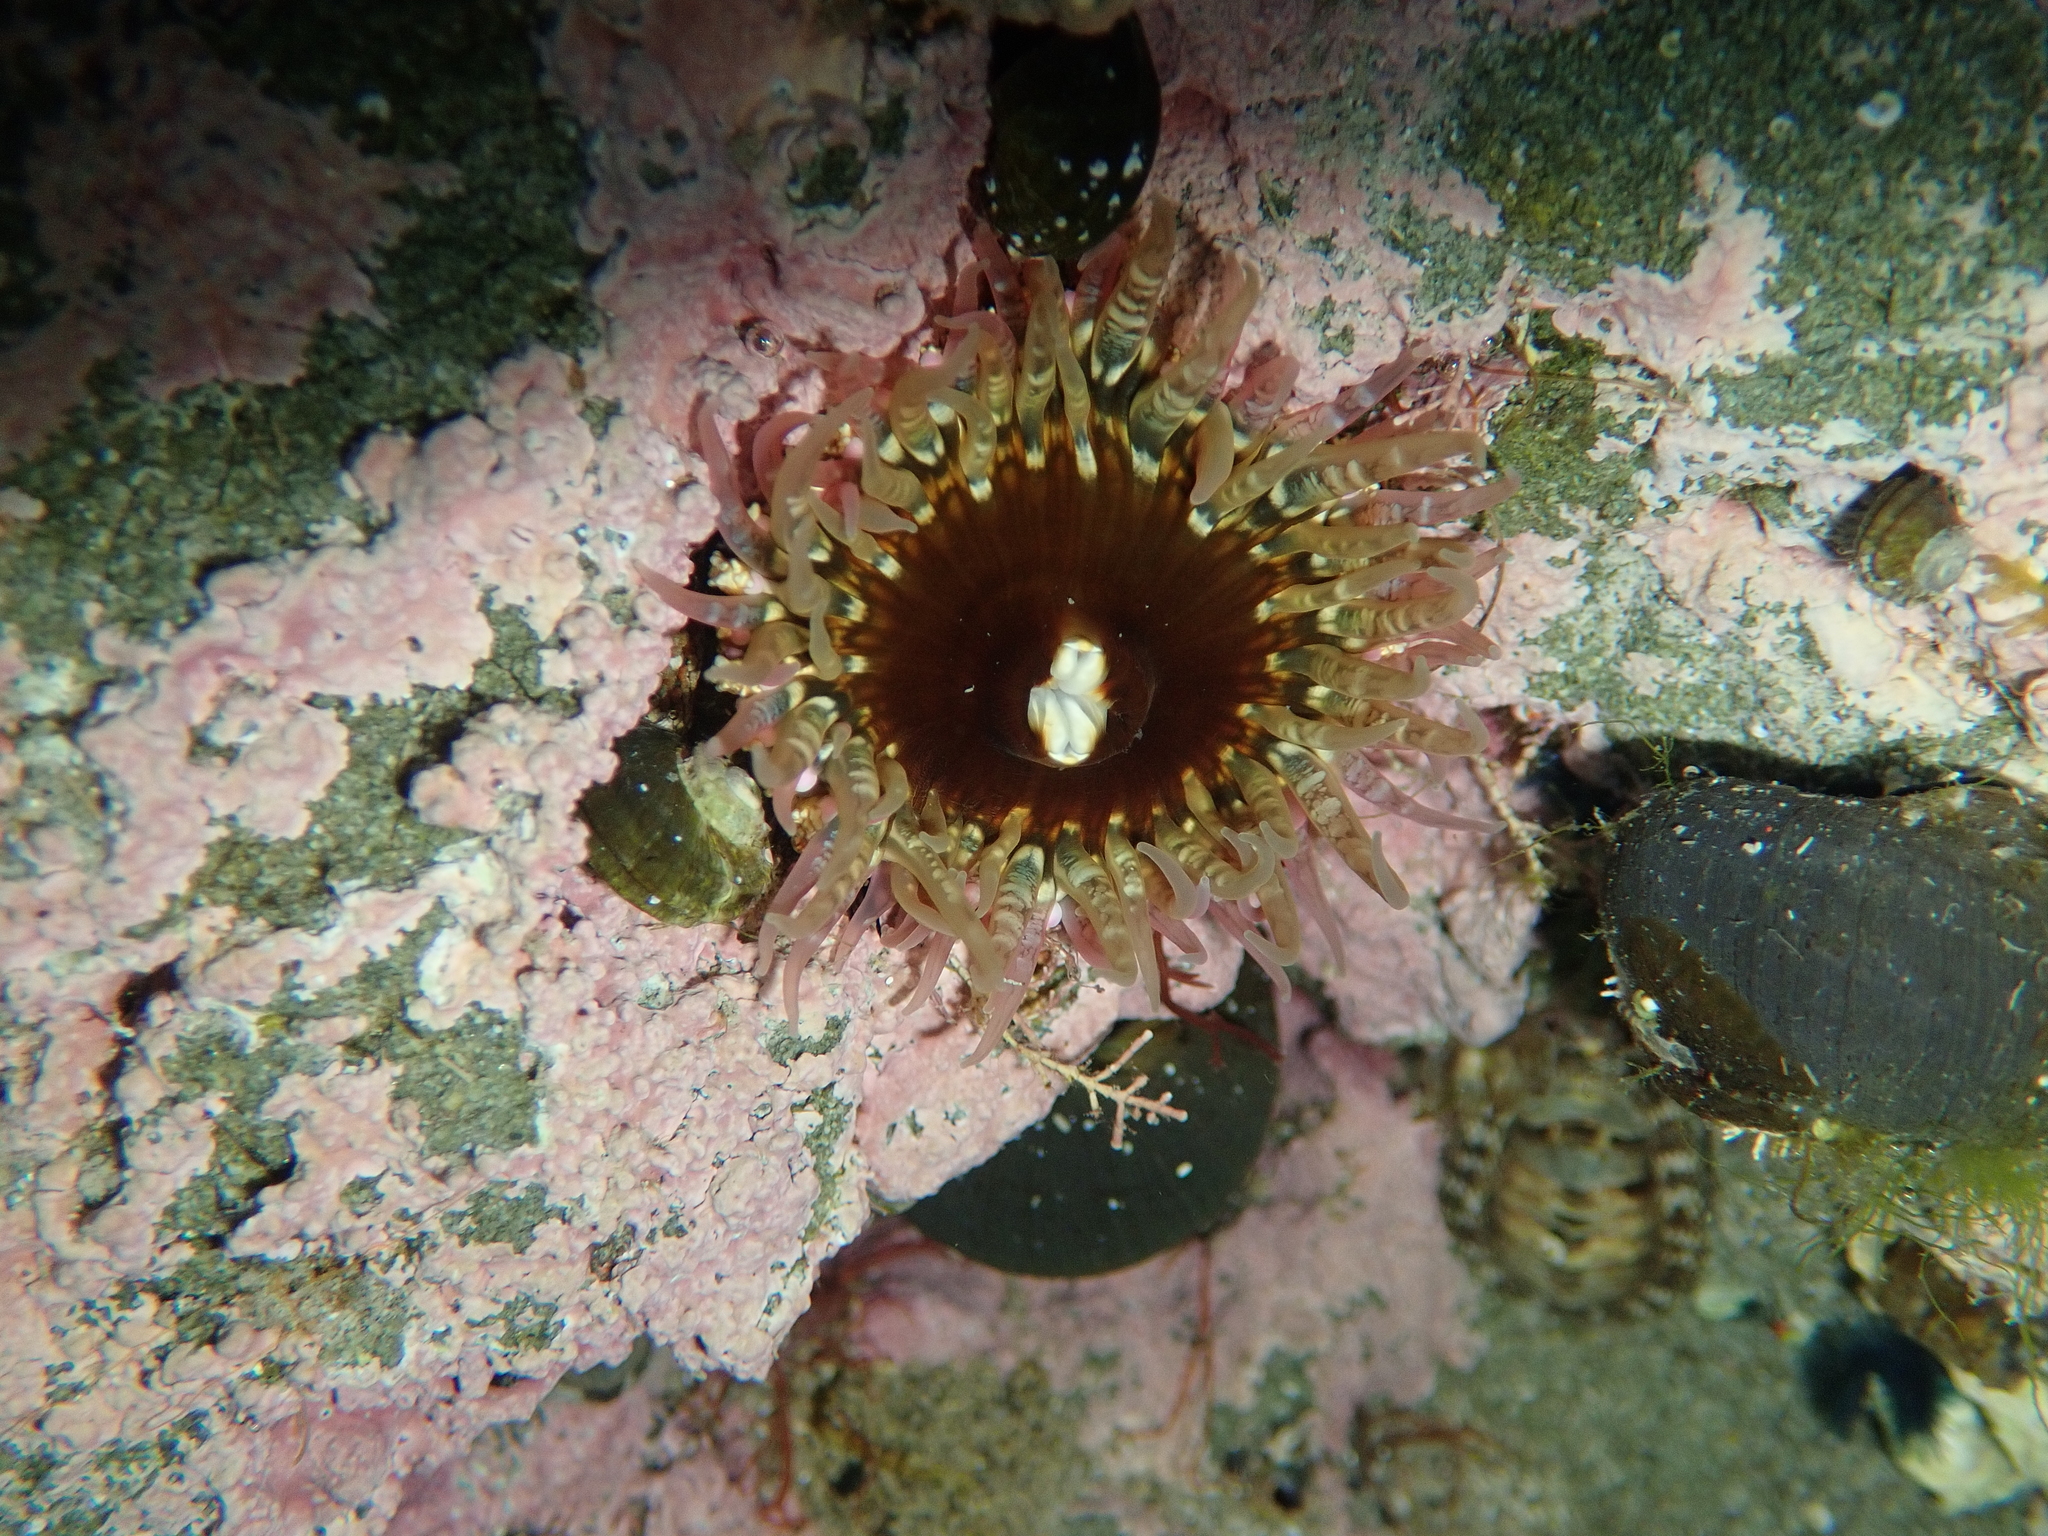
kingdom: Animalia
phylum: Cnidaria
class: Anthozoa
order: Actiniaria
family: Actiniidae
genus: Oulactis
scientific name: Oulactis muscosa
